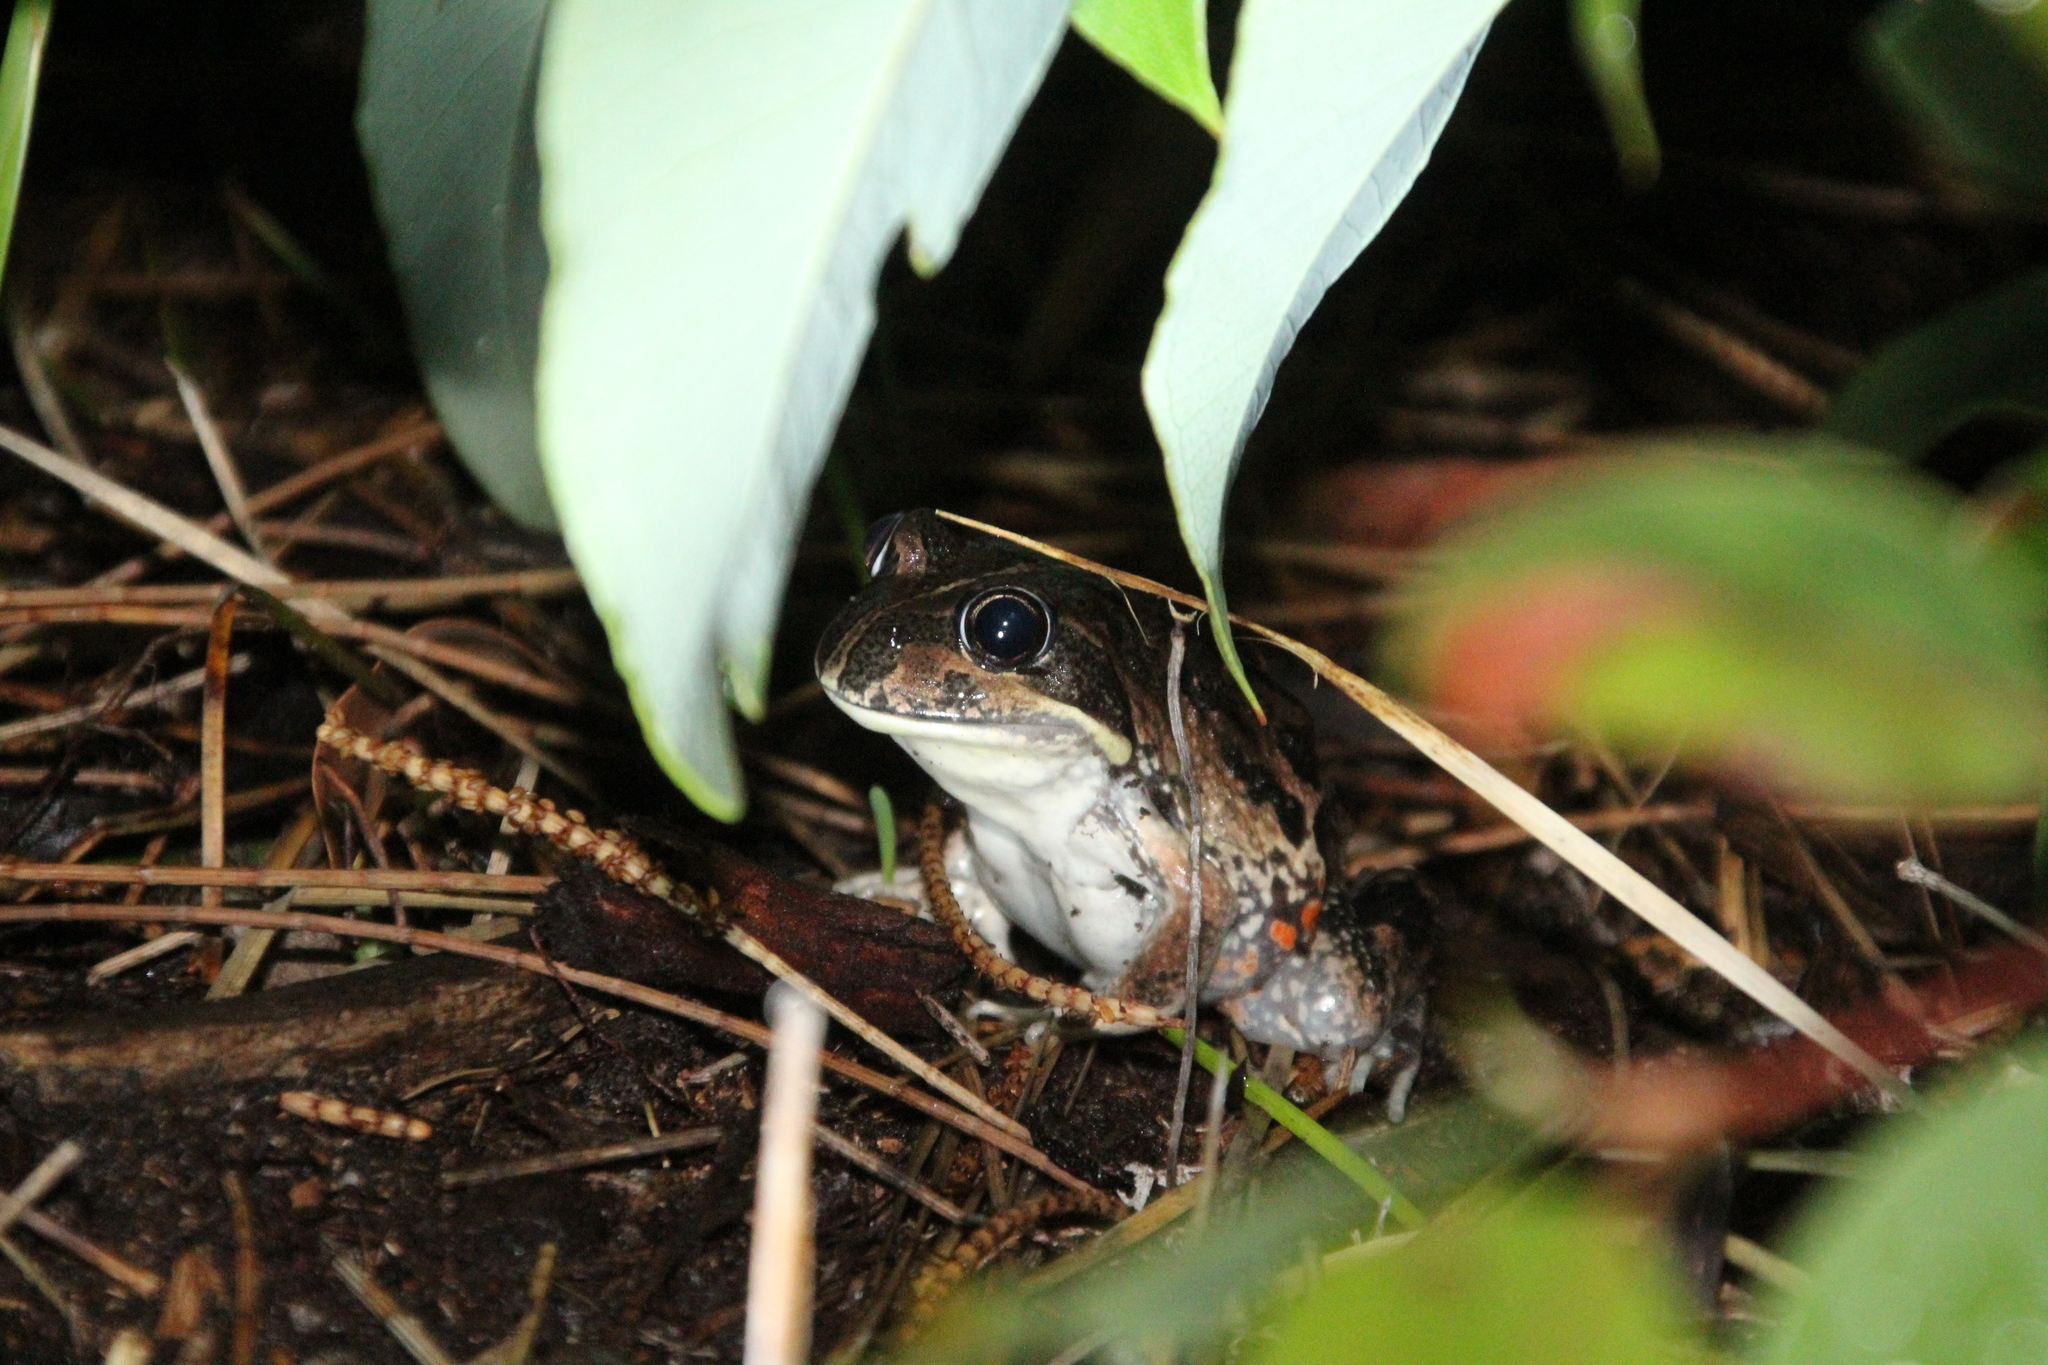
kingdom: Animalia
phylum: Chordata
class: Amphibia
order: Anura
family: Limnodynastidae
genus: Limnodynastes
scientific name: Limnodynastes dorsalis
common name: Banjo frog
